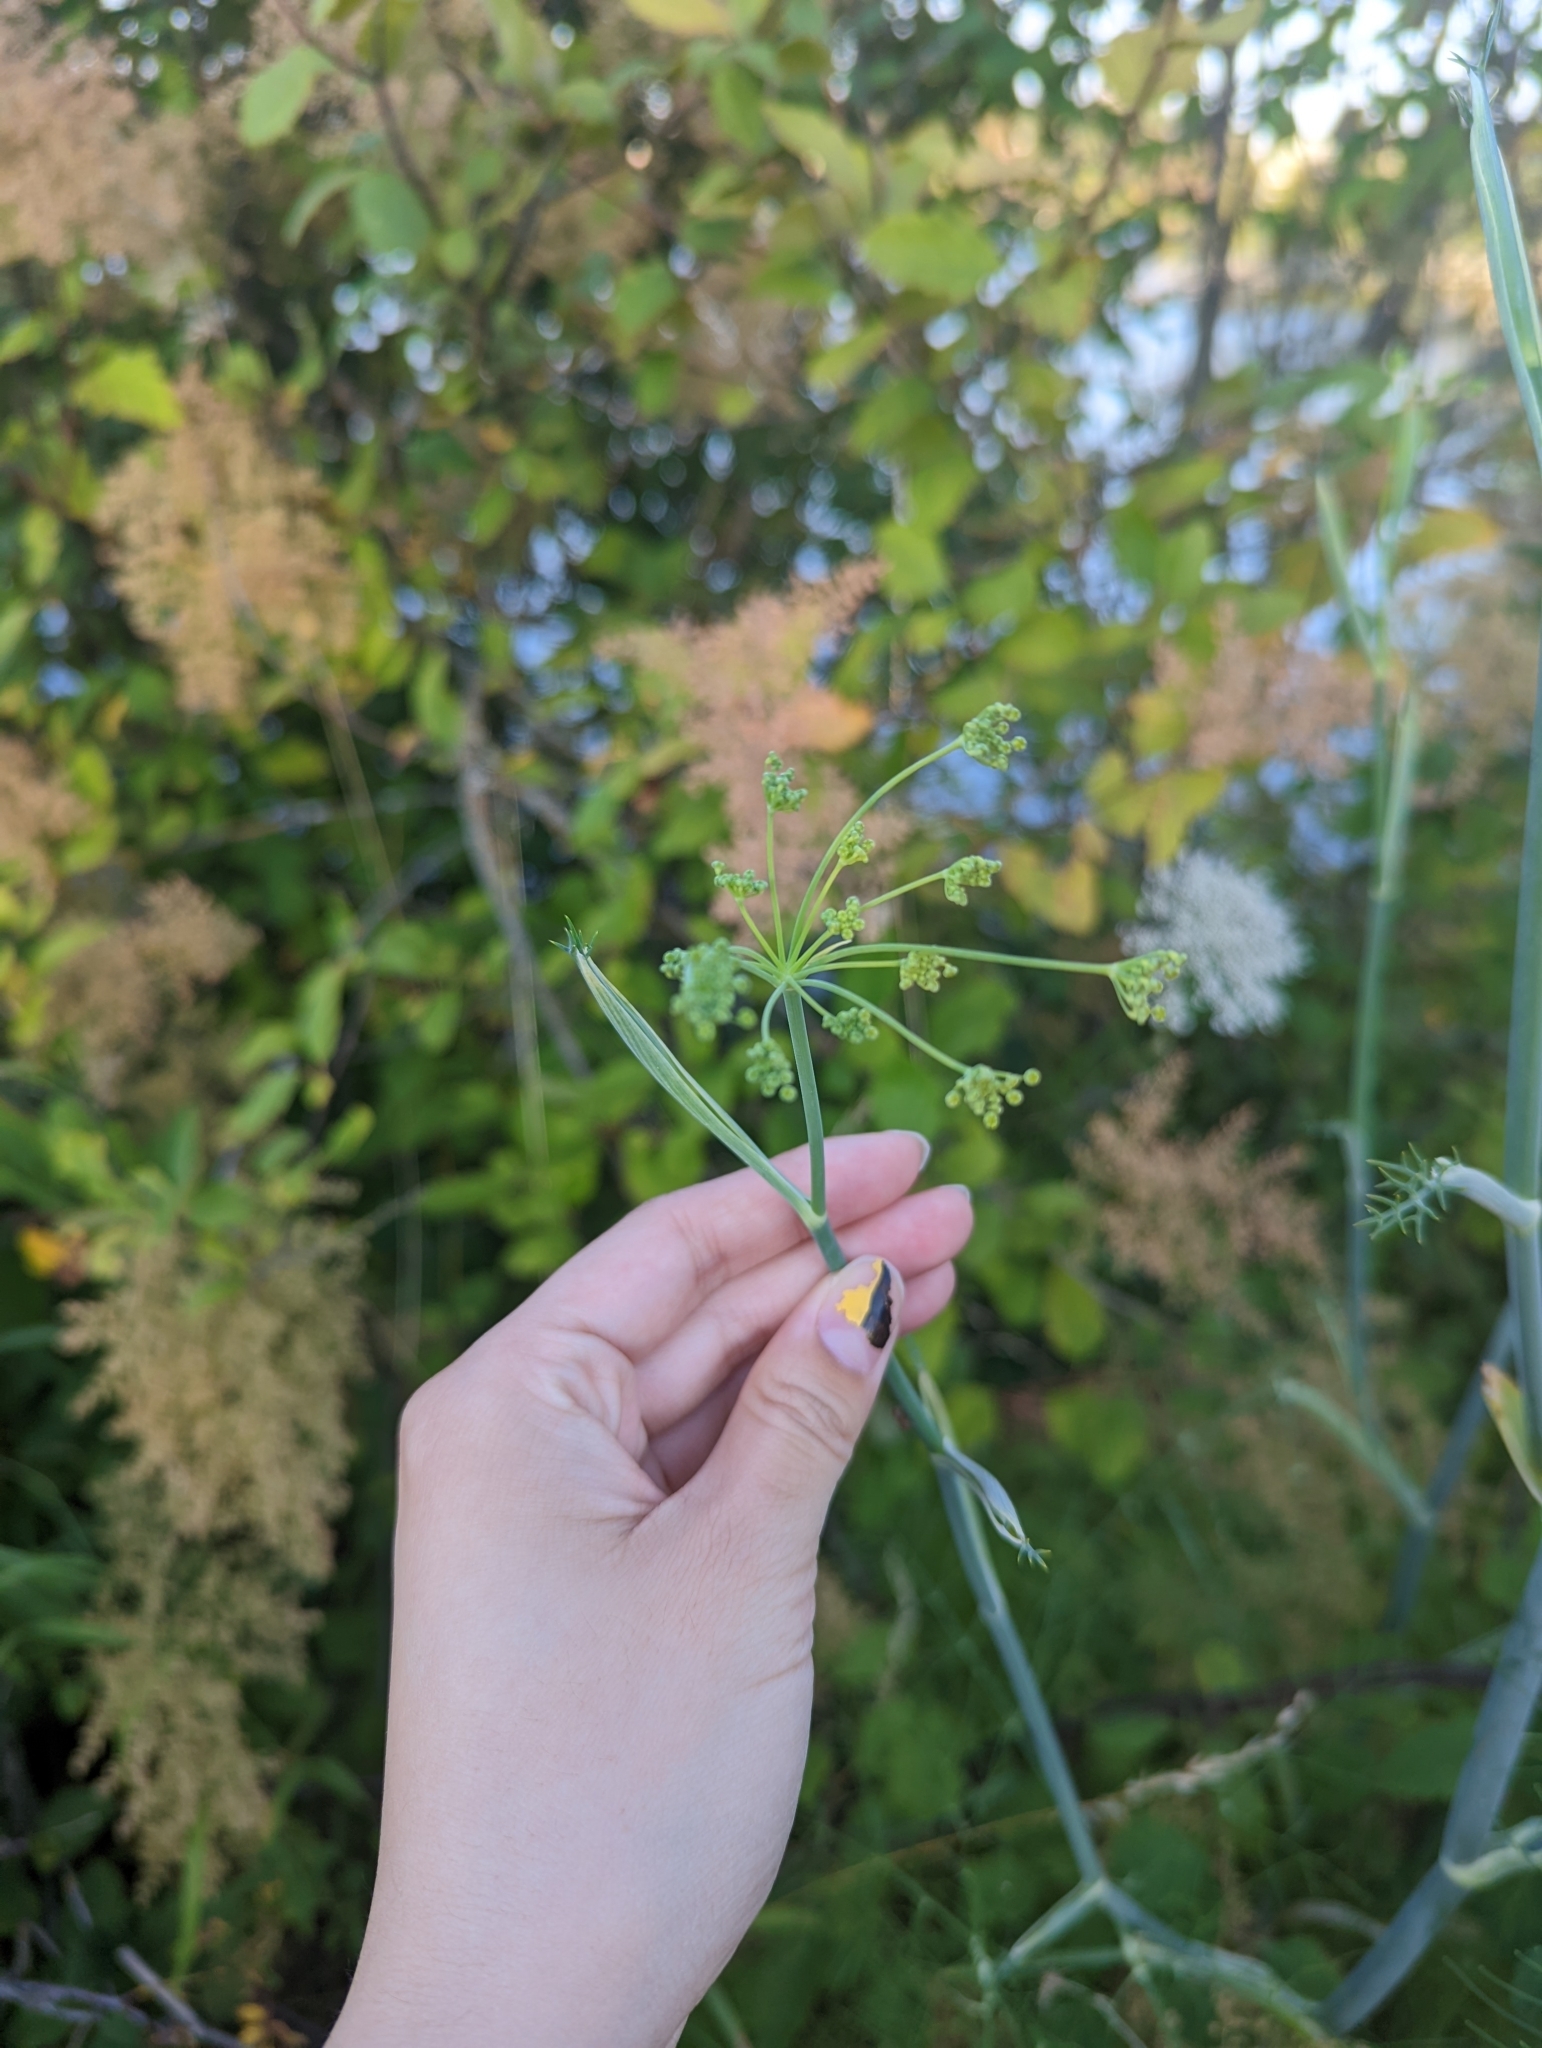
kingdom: Plantae
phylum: Tracheophyta
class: Magnoliopsida
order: Apiales
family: Apiaceae
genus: Foeniculum
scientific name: Foeniculum vulgare
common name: Fennel
